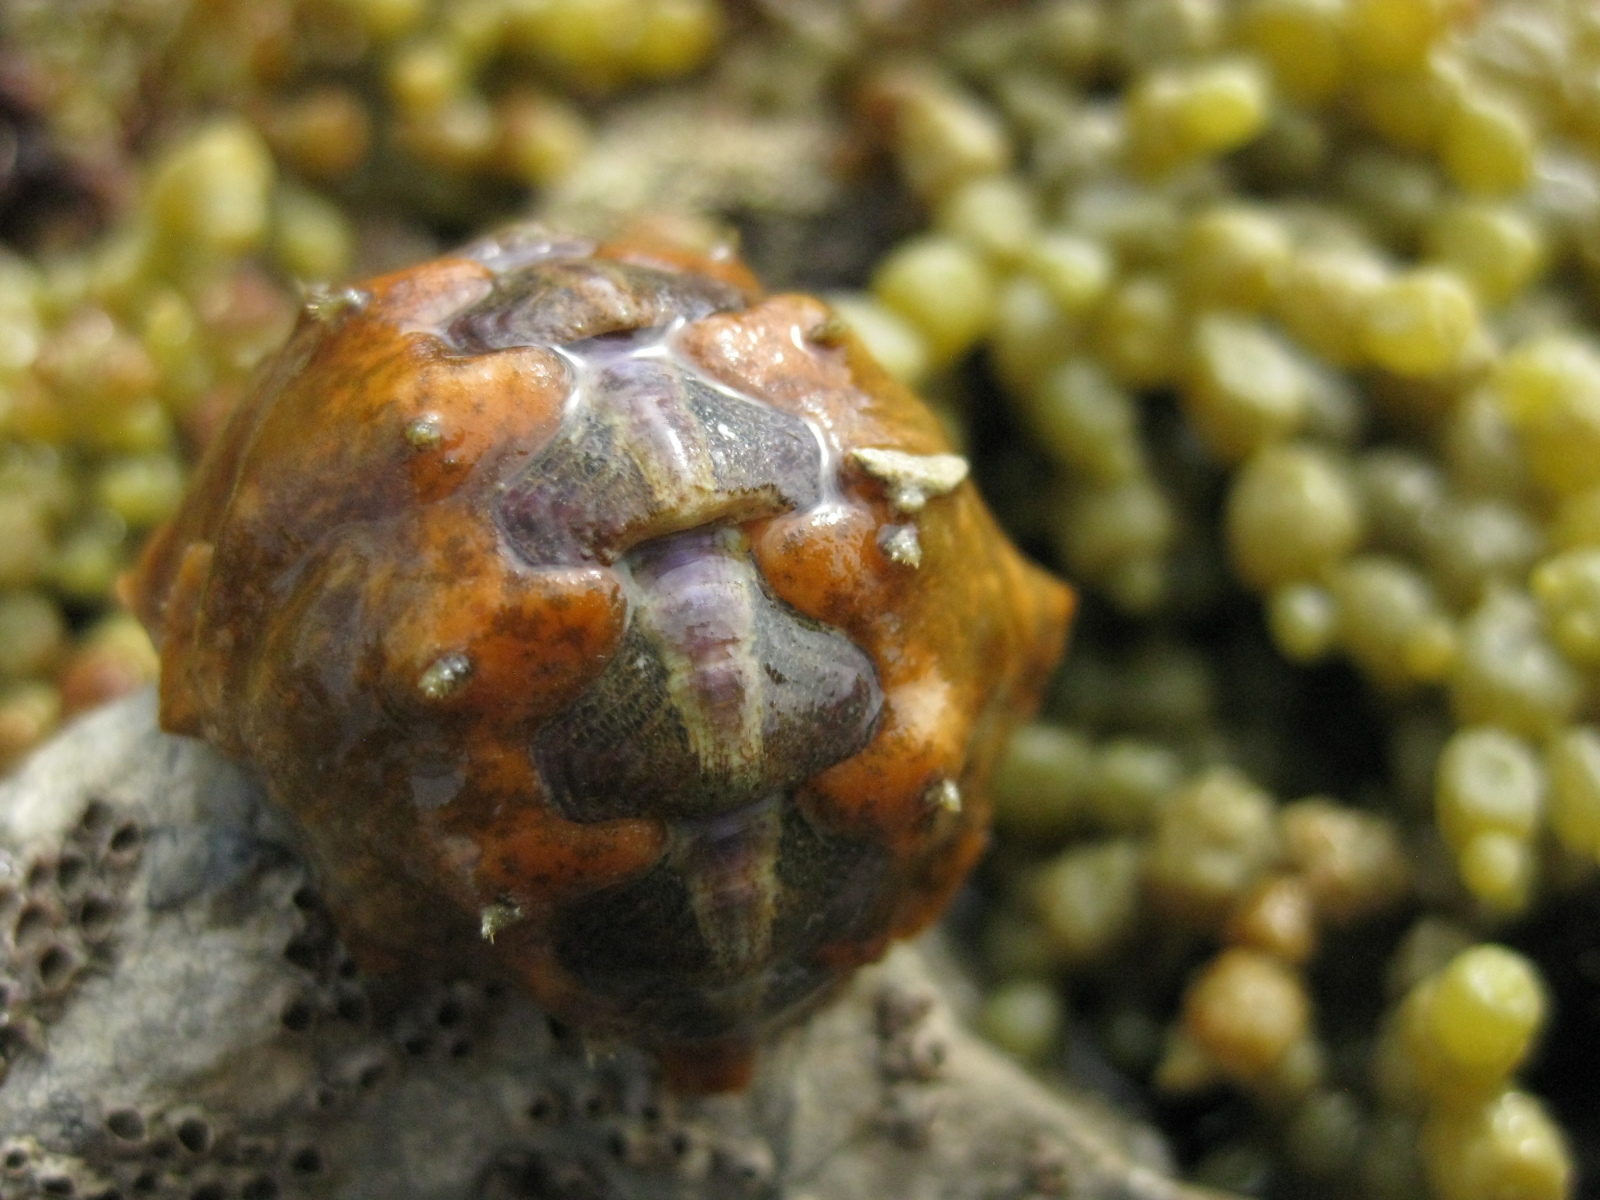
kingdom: Animalia
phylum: Mollusca
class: Polyplacophora
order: Chitonida
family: Acanthochitonidae
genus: Notoplax
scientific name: Notoplax violacea
